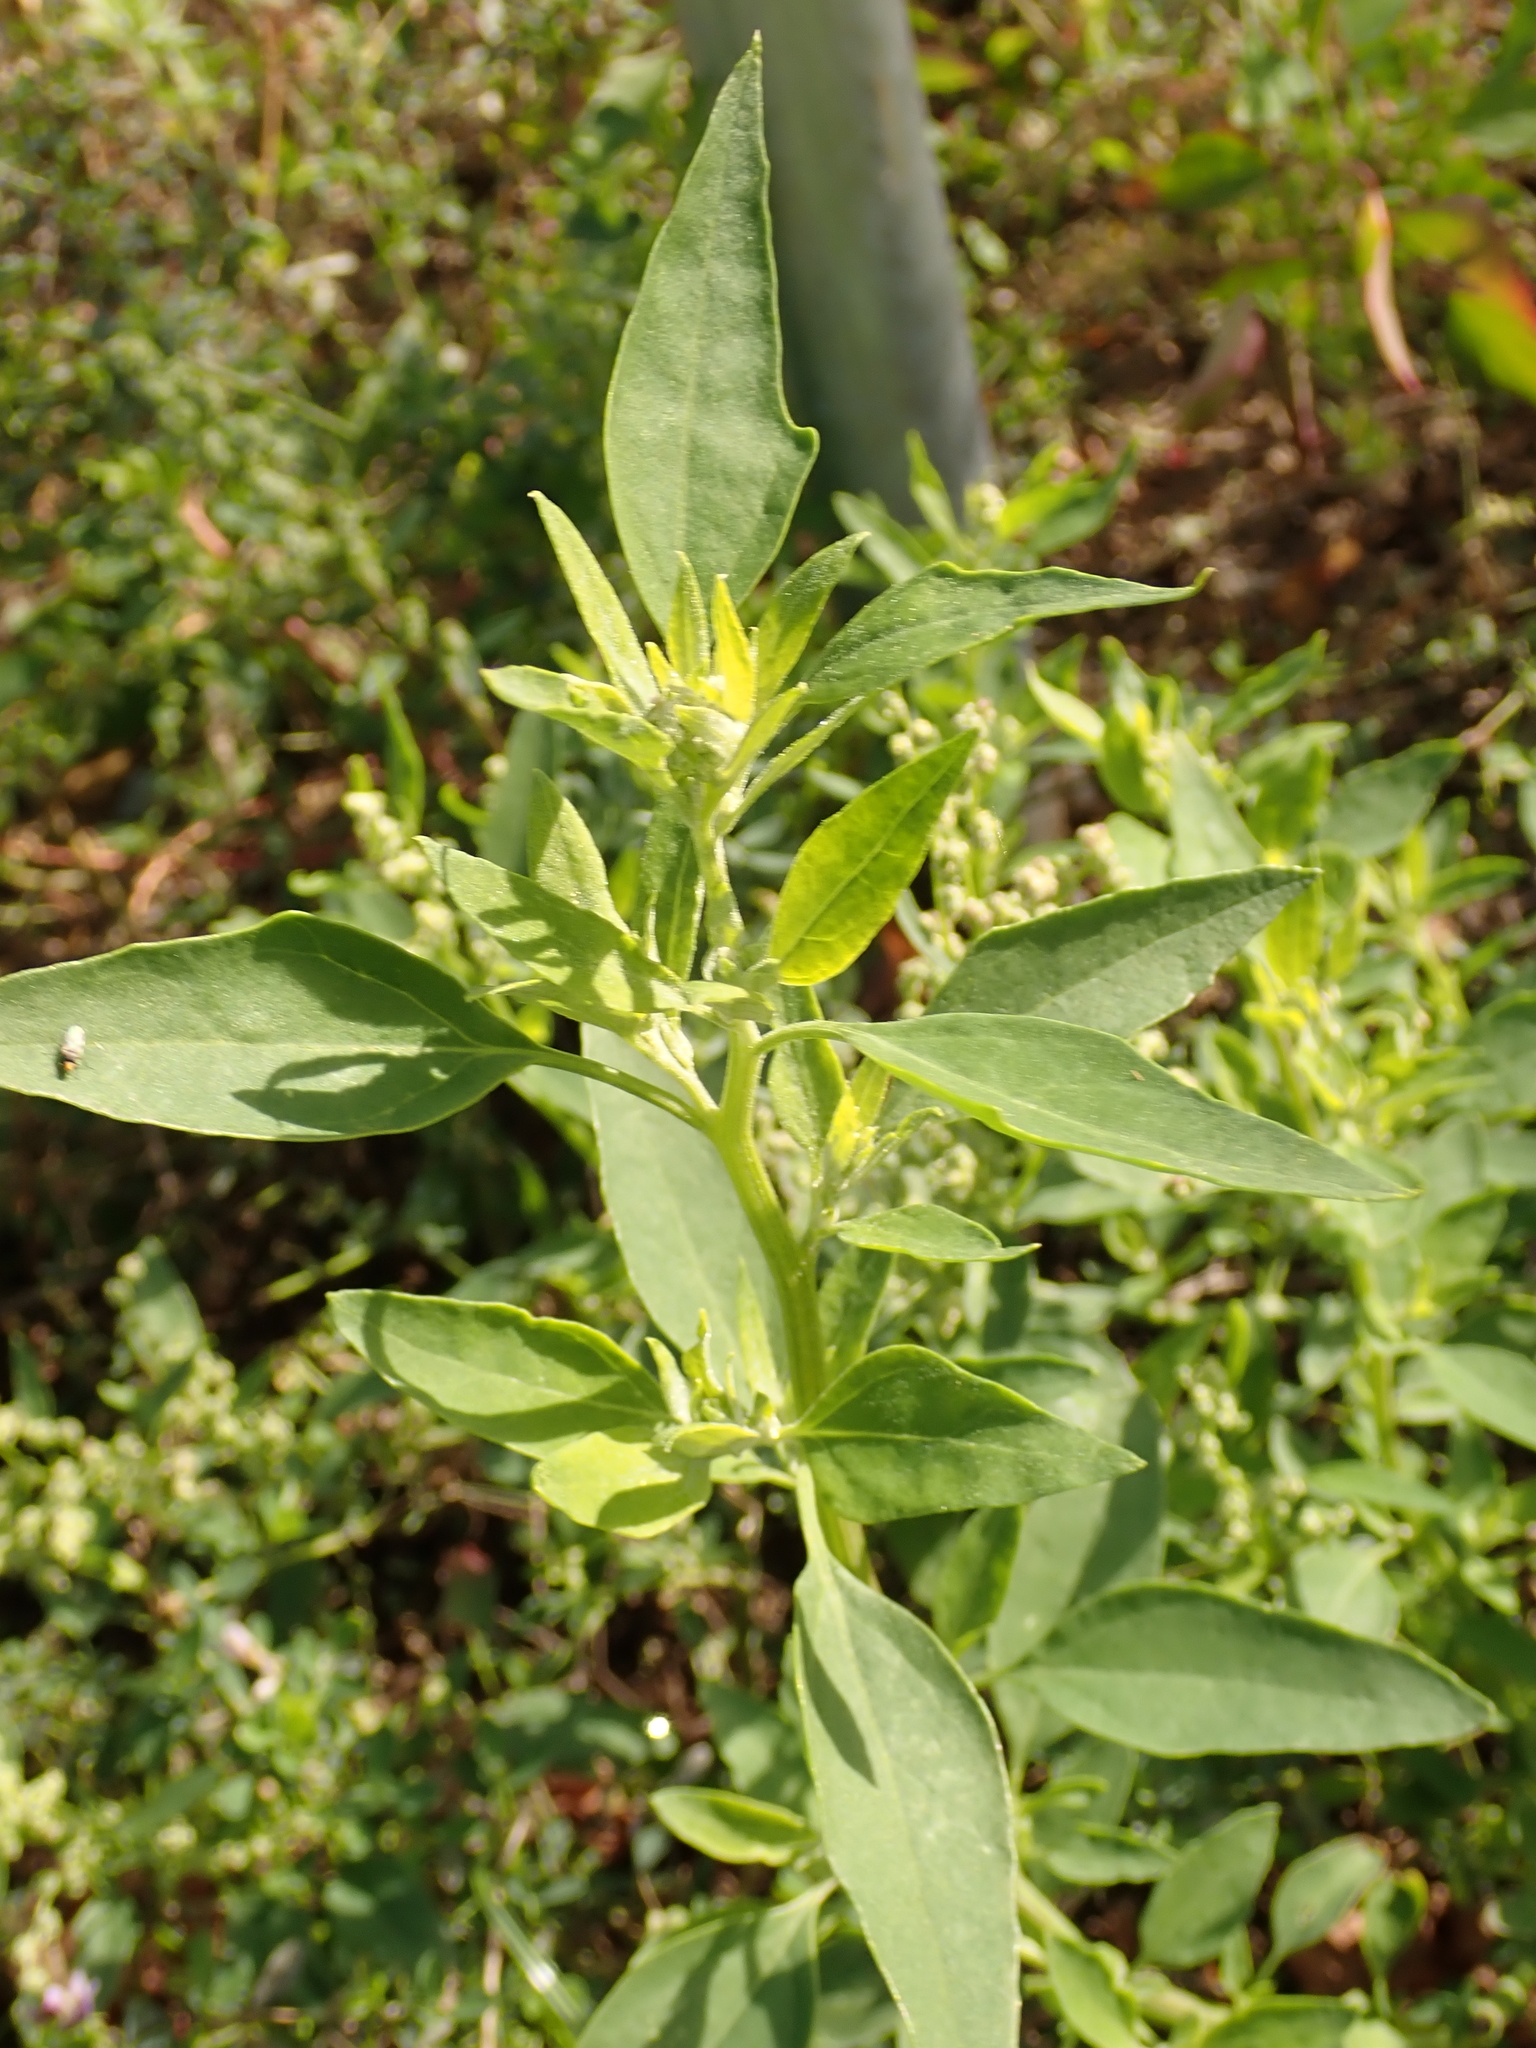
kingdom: Plantae
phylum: Tracheophyta
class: Magnoliopsida
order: Caryophyllales
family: Amaranthaceae
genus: Chenopodium
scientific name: Chenopodium album
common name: Fat-hen
